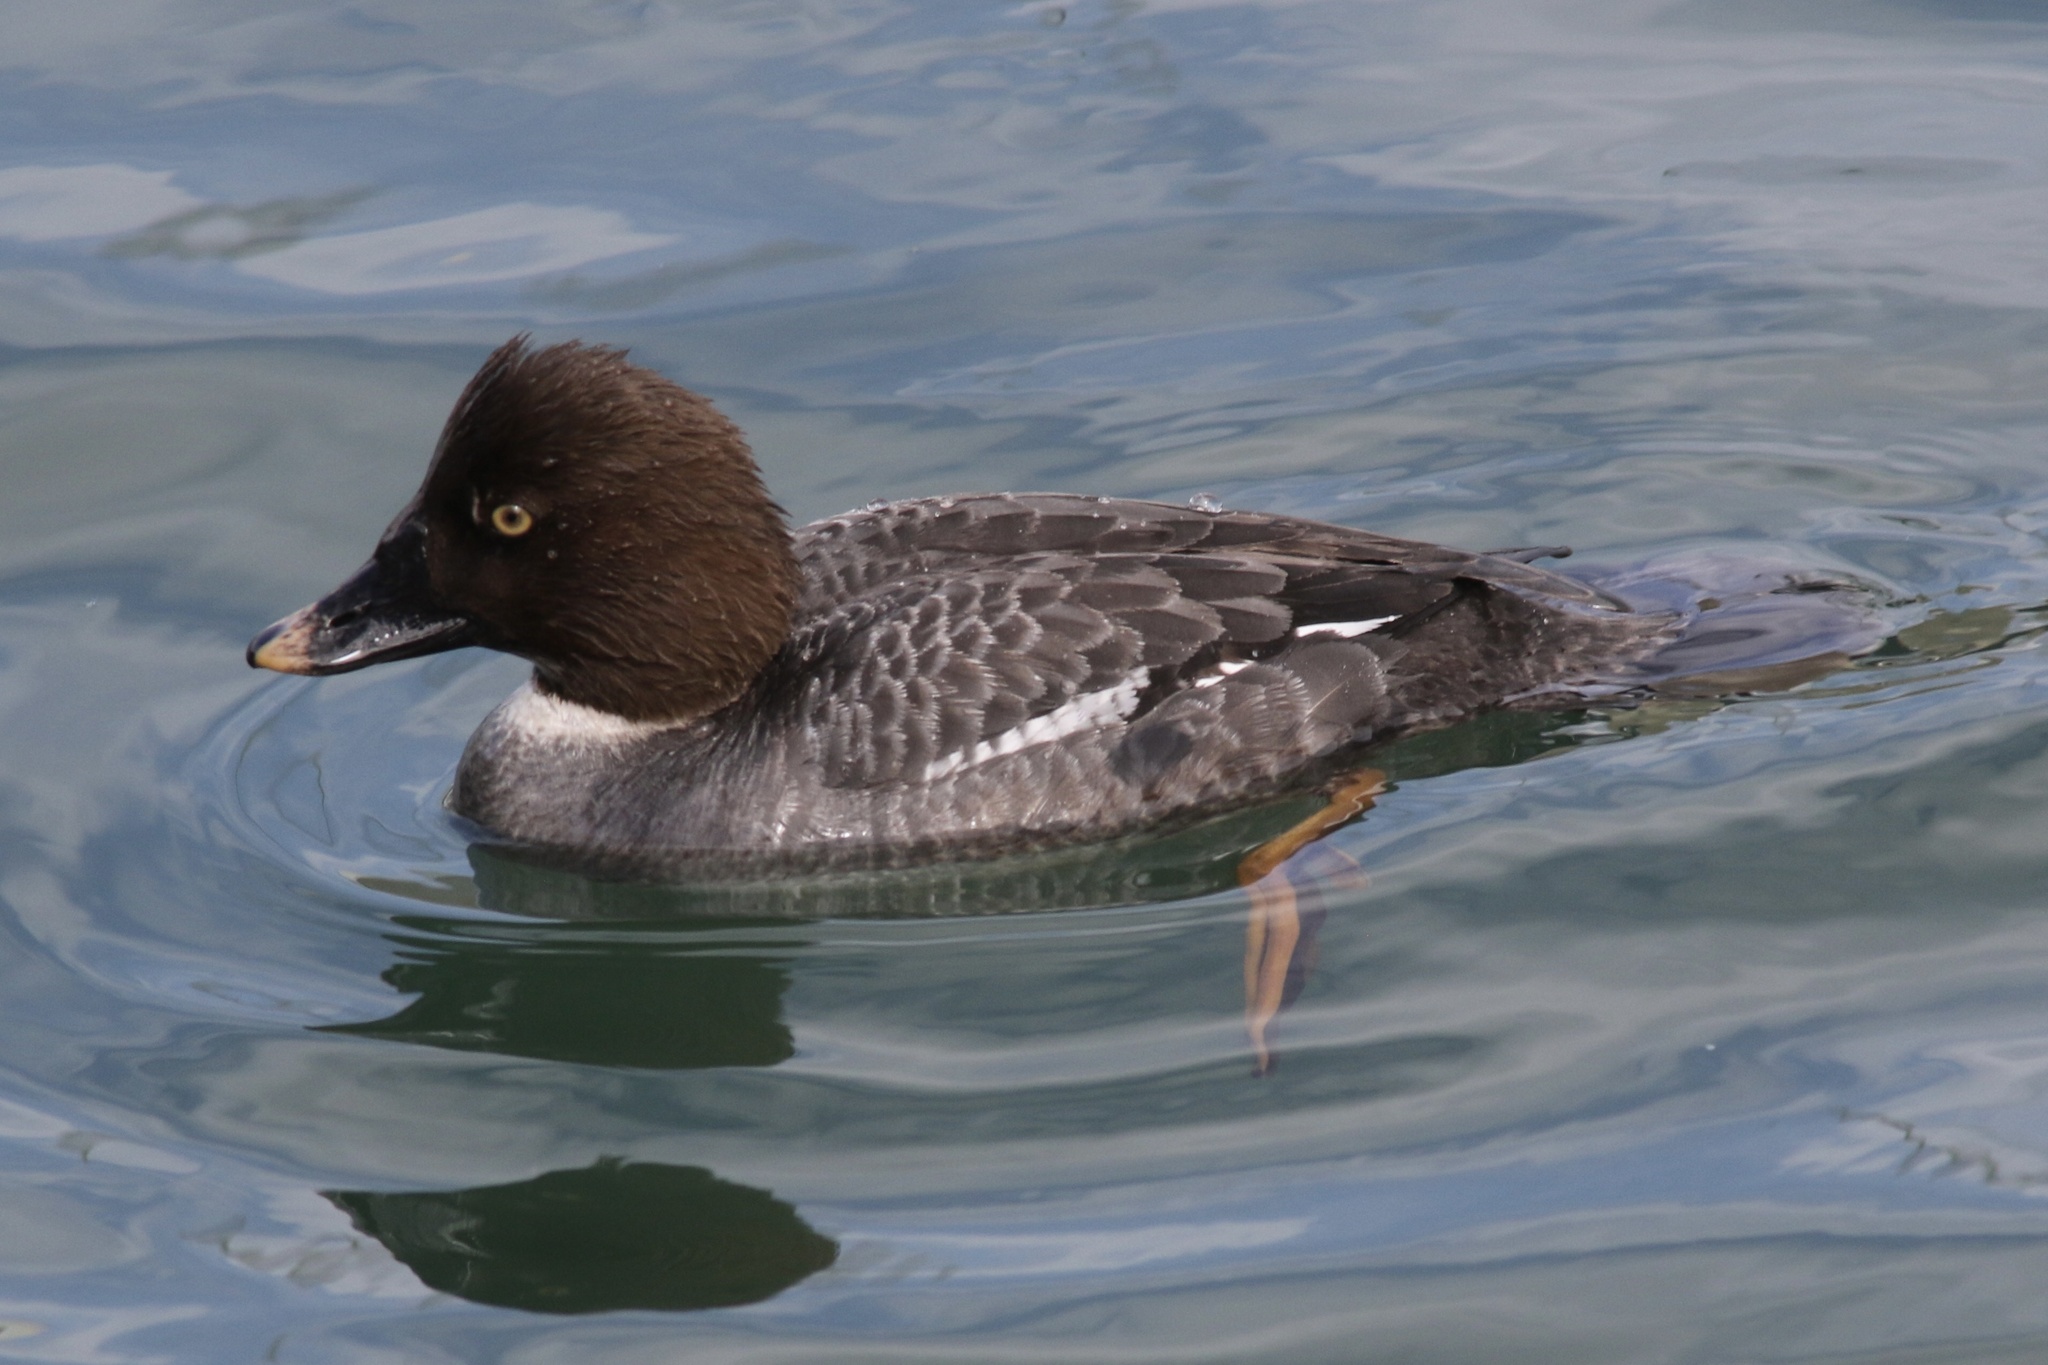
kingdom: Animalia
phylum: Chordata
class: Aves
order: Anseriformes
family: Anatidae
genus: Bucephala
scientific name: Bucephala clangula
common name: Common goldeneye
